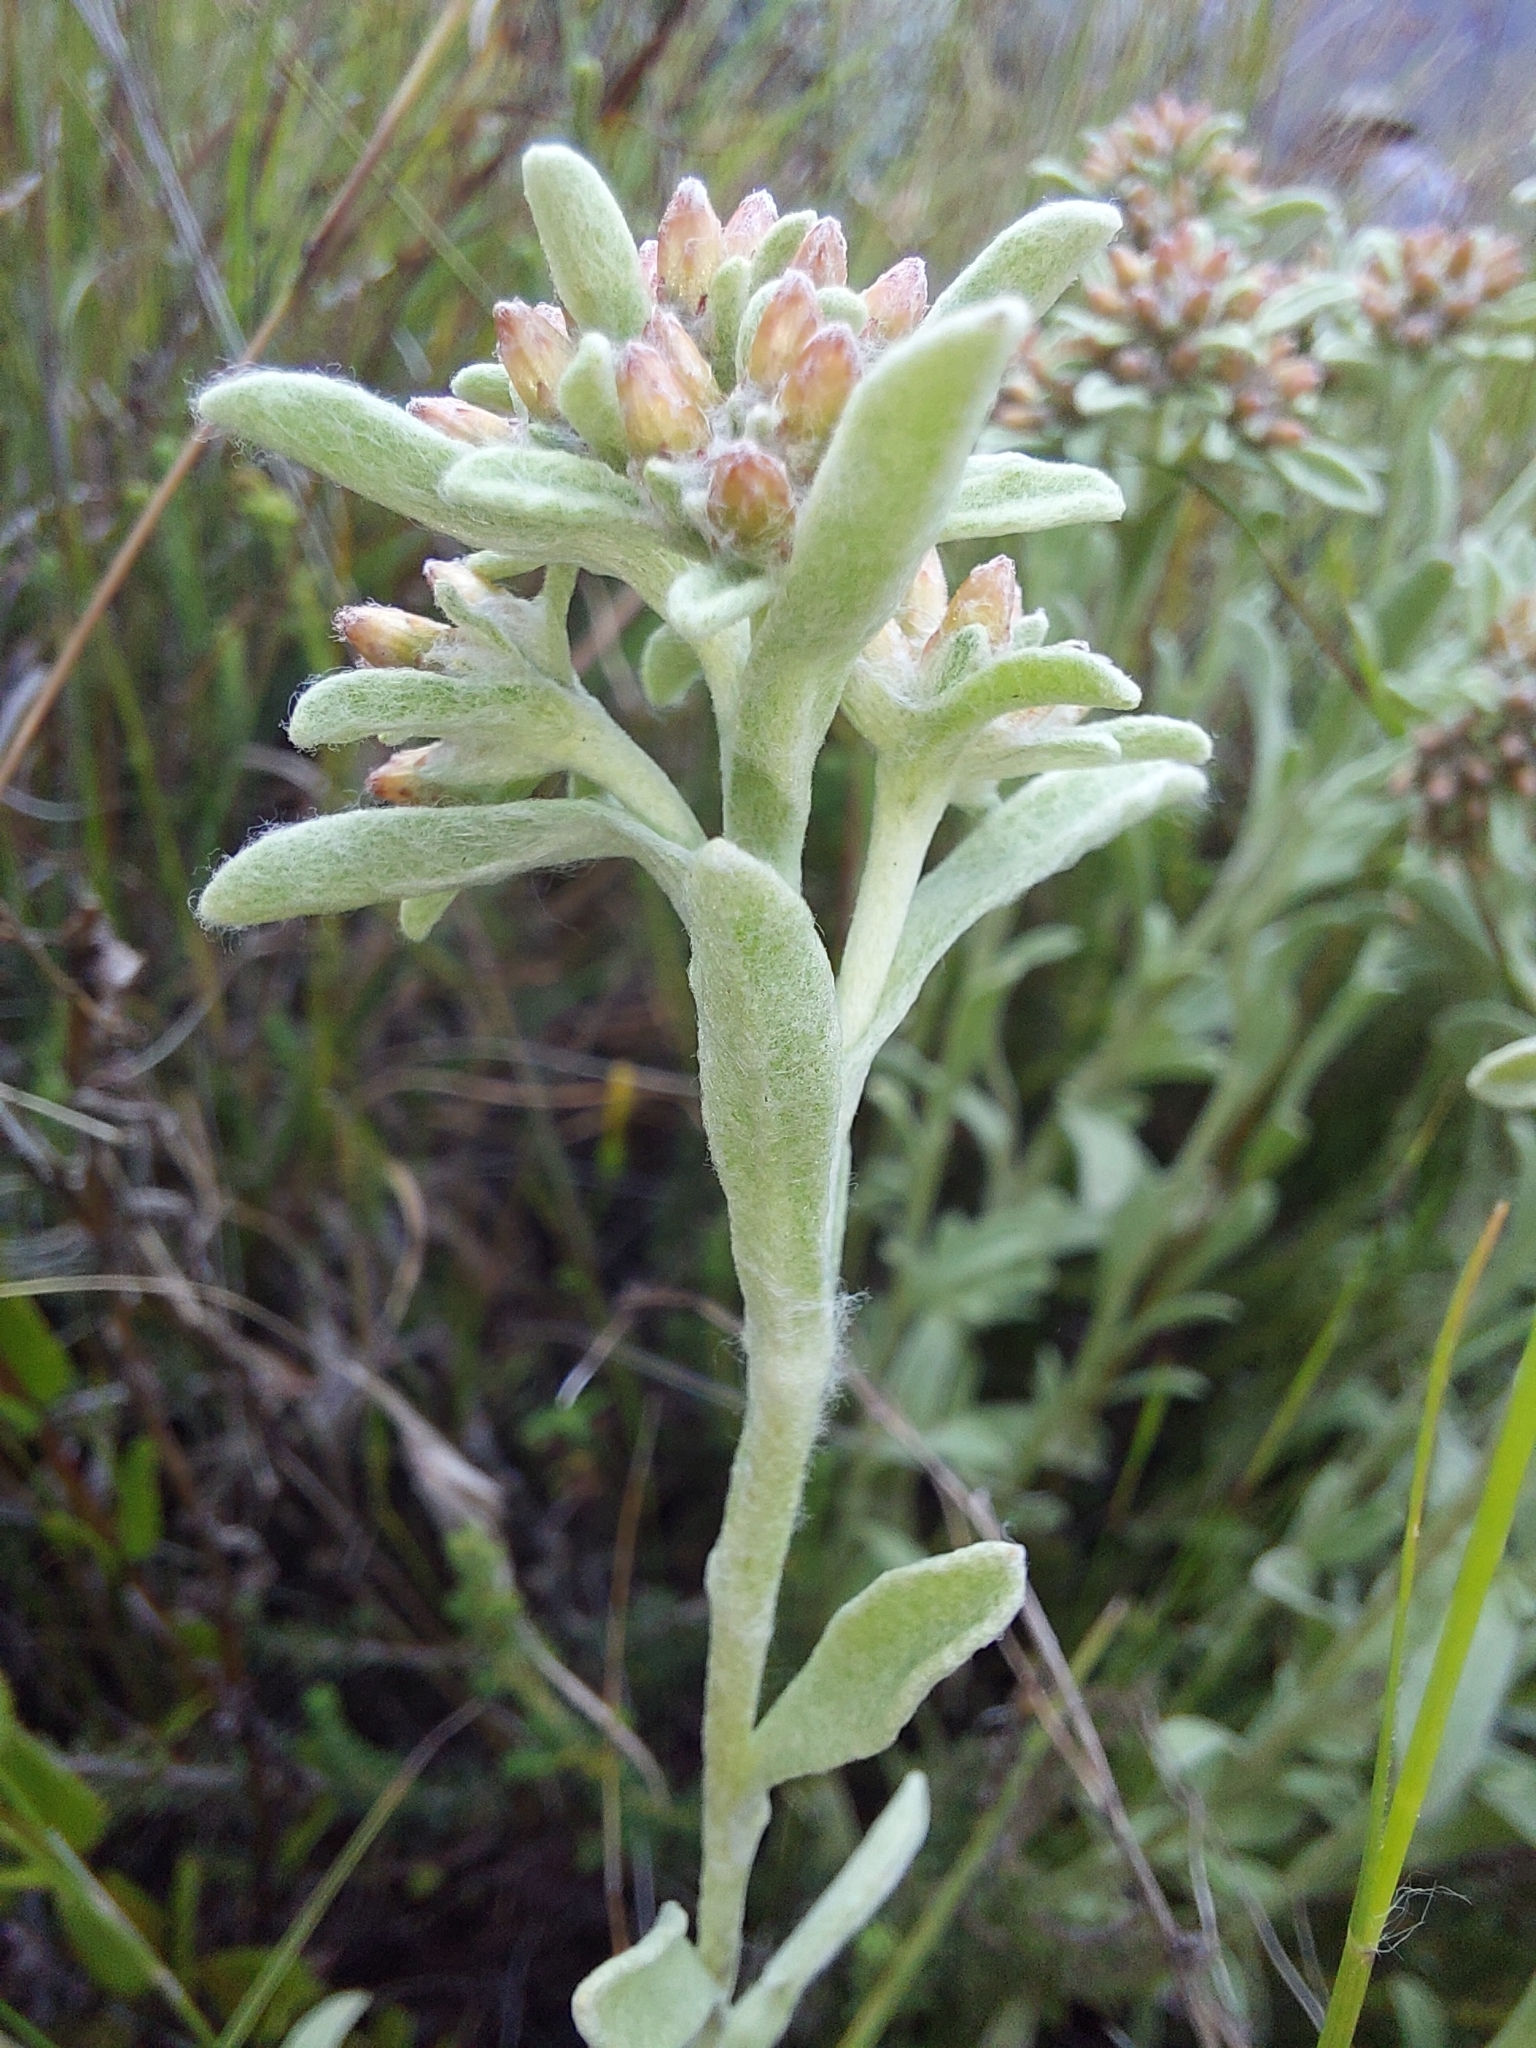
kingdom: Plantae
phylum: Tracheophyta
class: Magnoliopsida
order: Asterales
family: Asteraceae
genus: Helichrysum
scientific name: Helichrysum spiralepis
